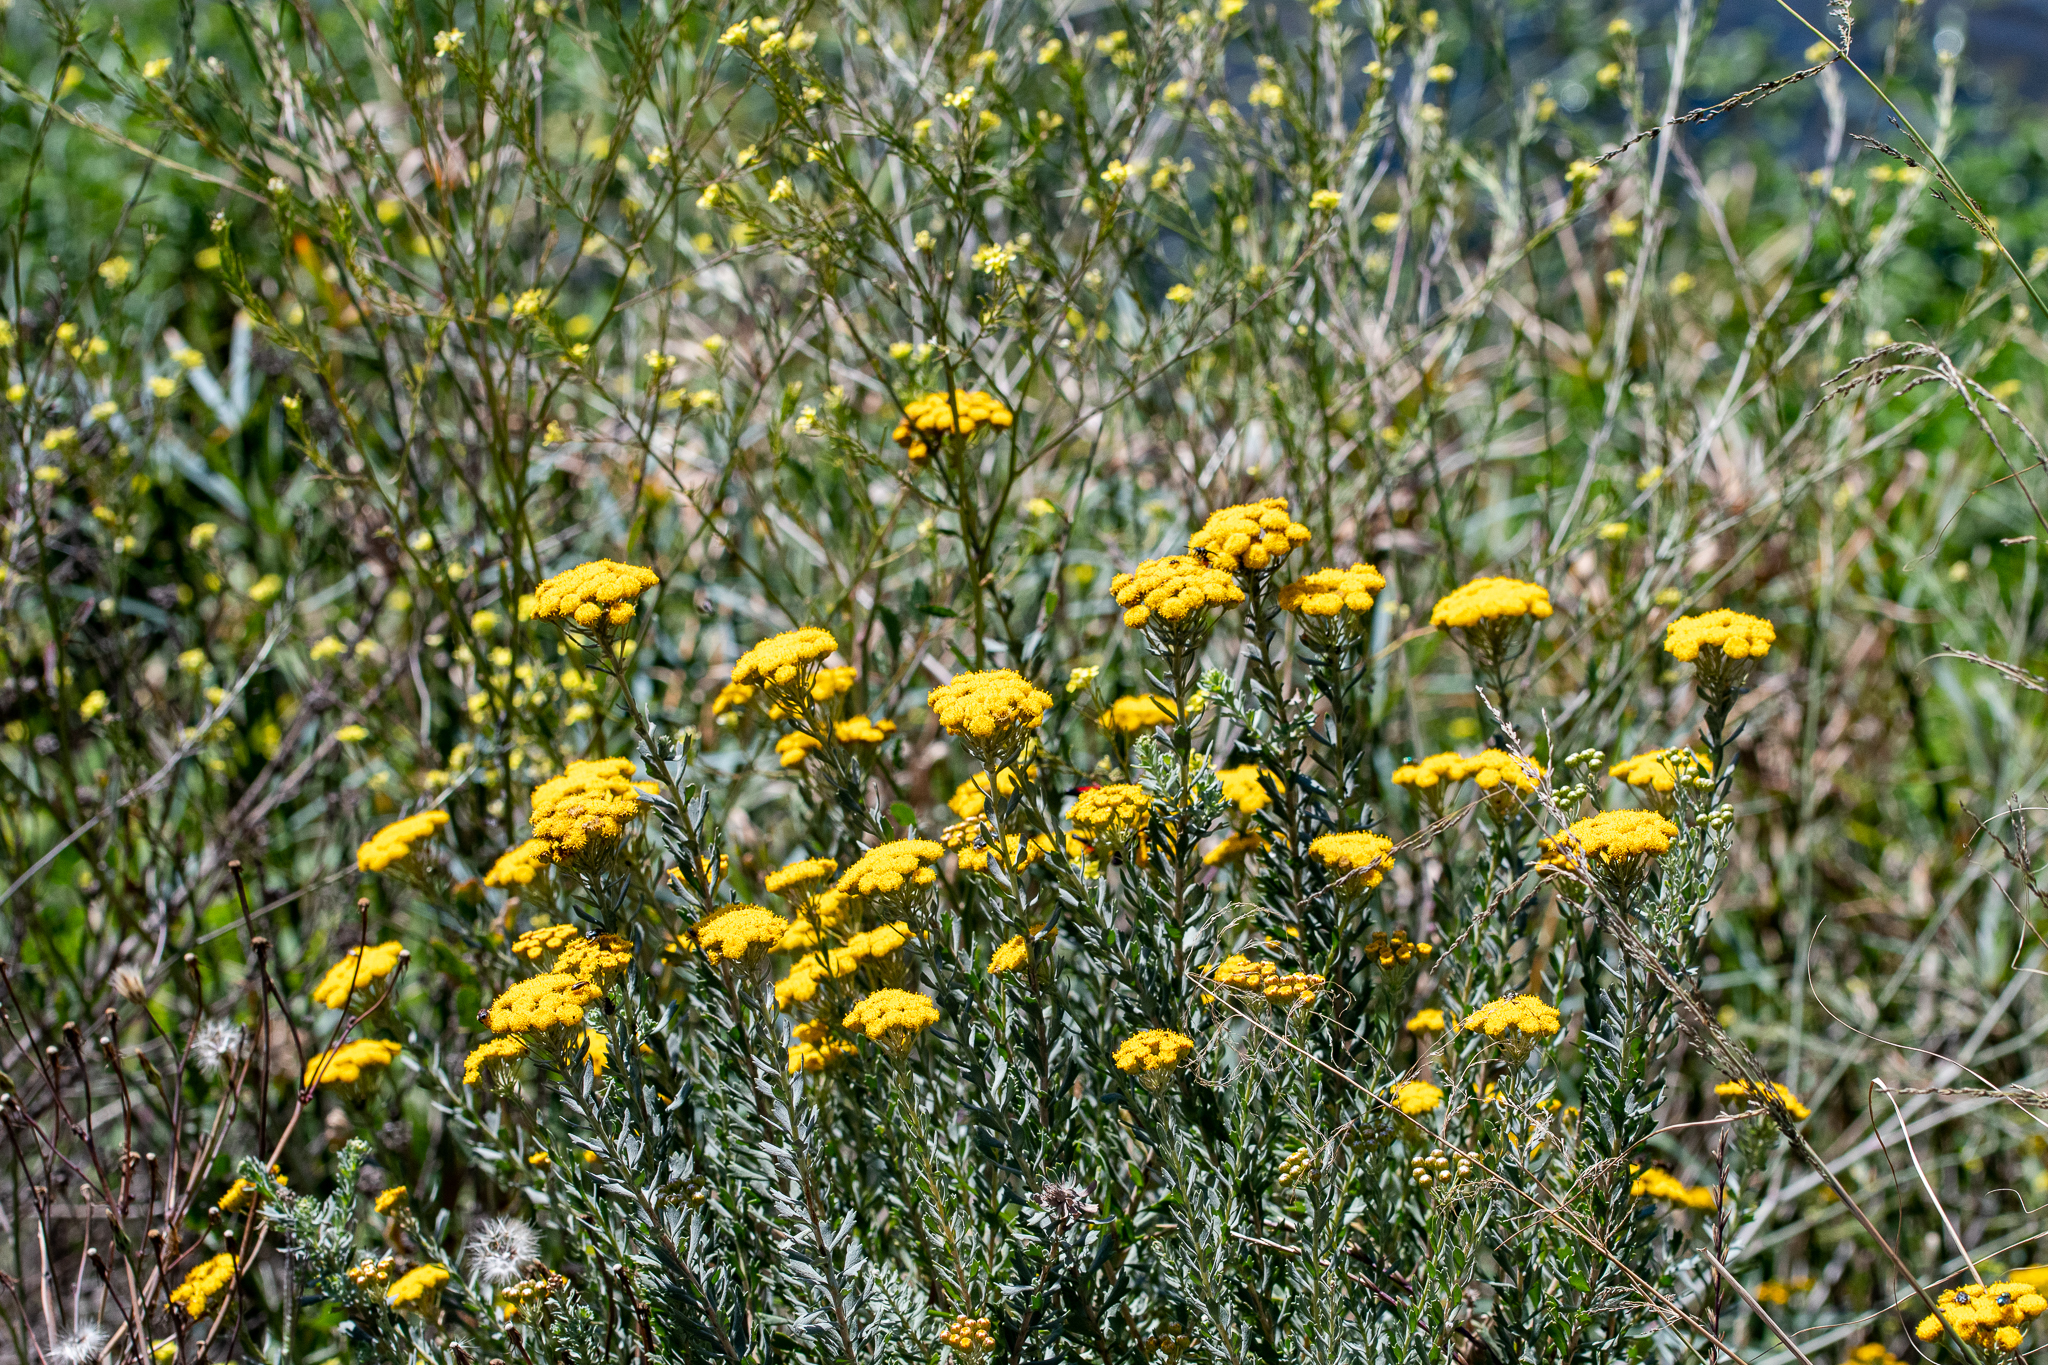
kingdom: Plantae
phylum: Tracheophyta
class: Magnoliopsida
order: Asterales
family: Asteraceae
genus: Athanasia
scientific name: Athanasia trifurcata
